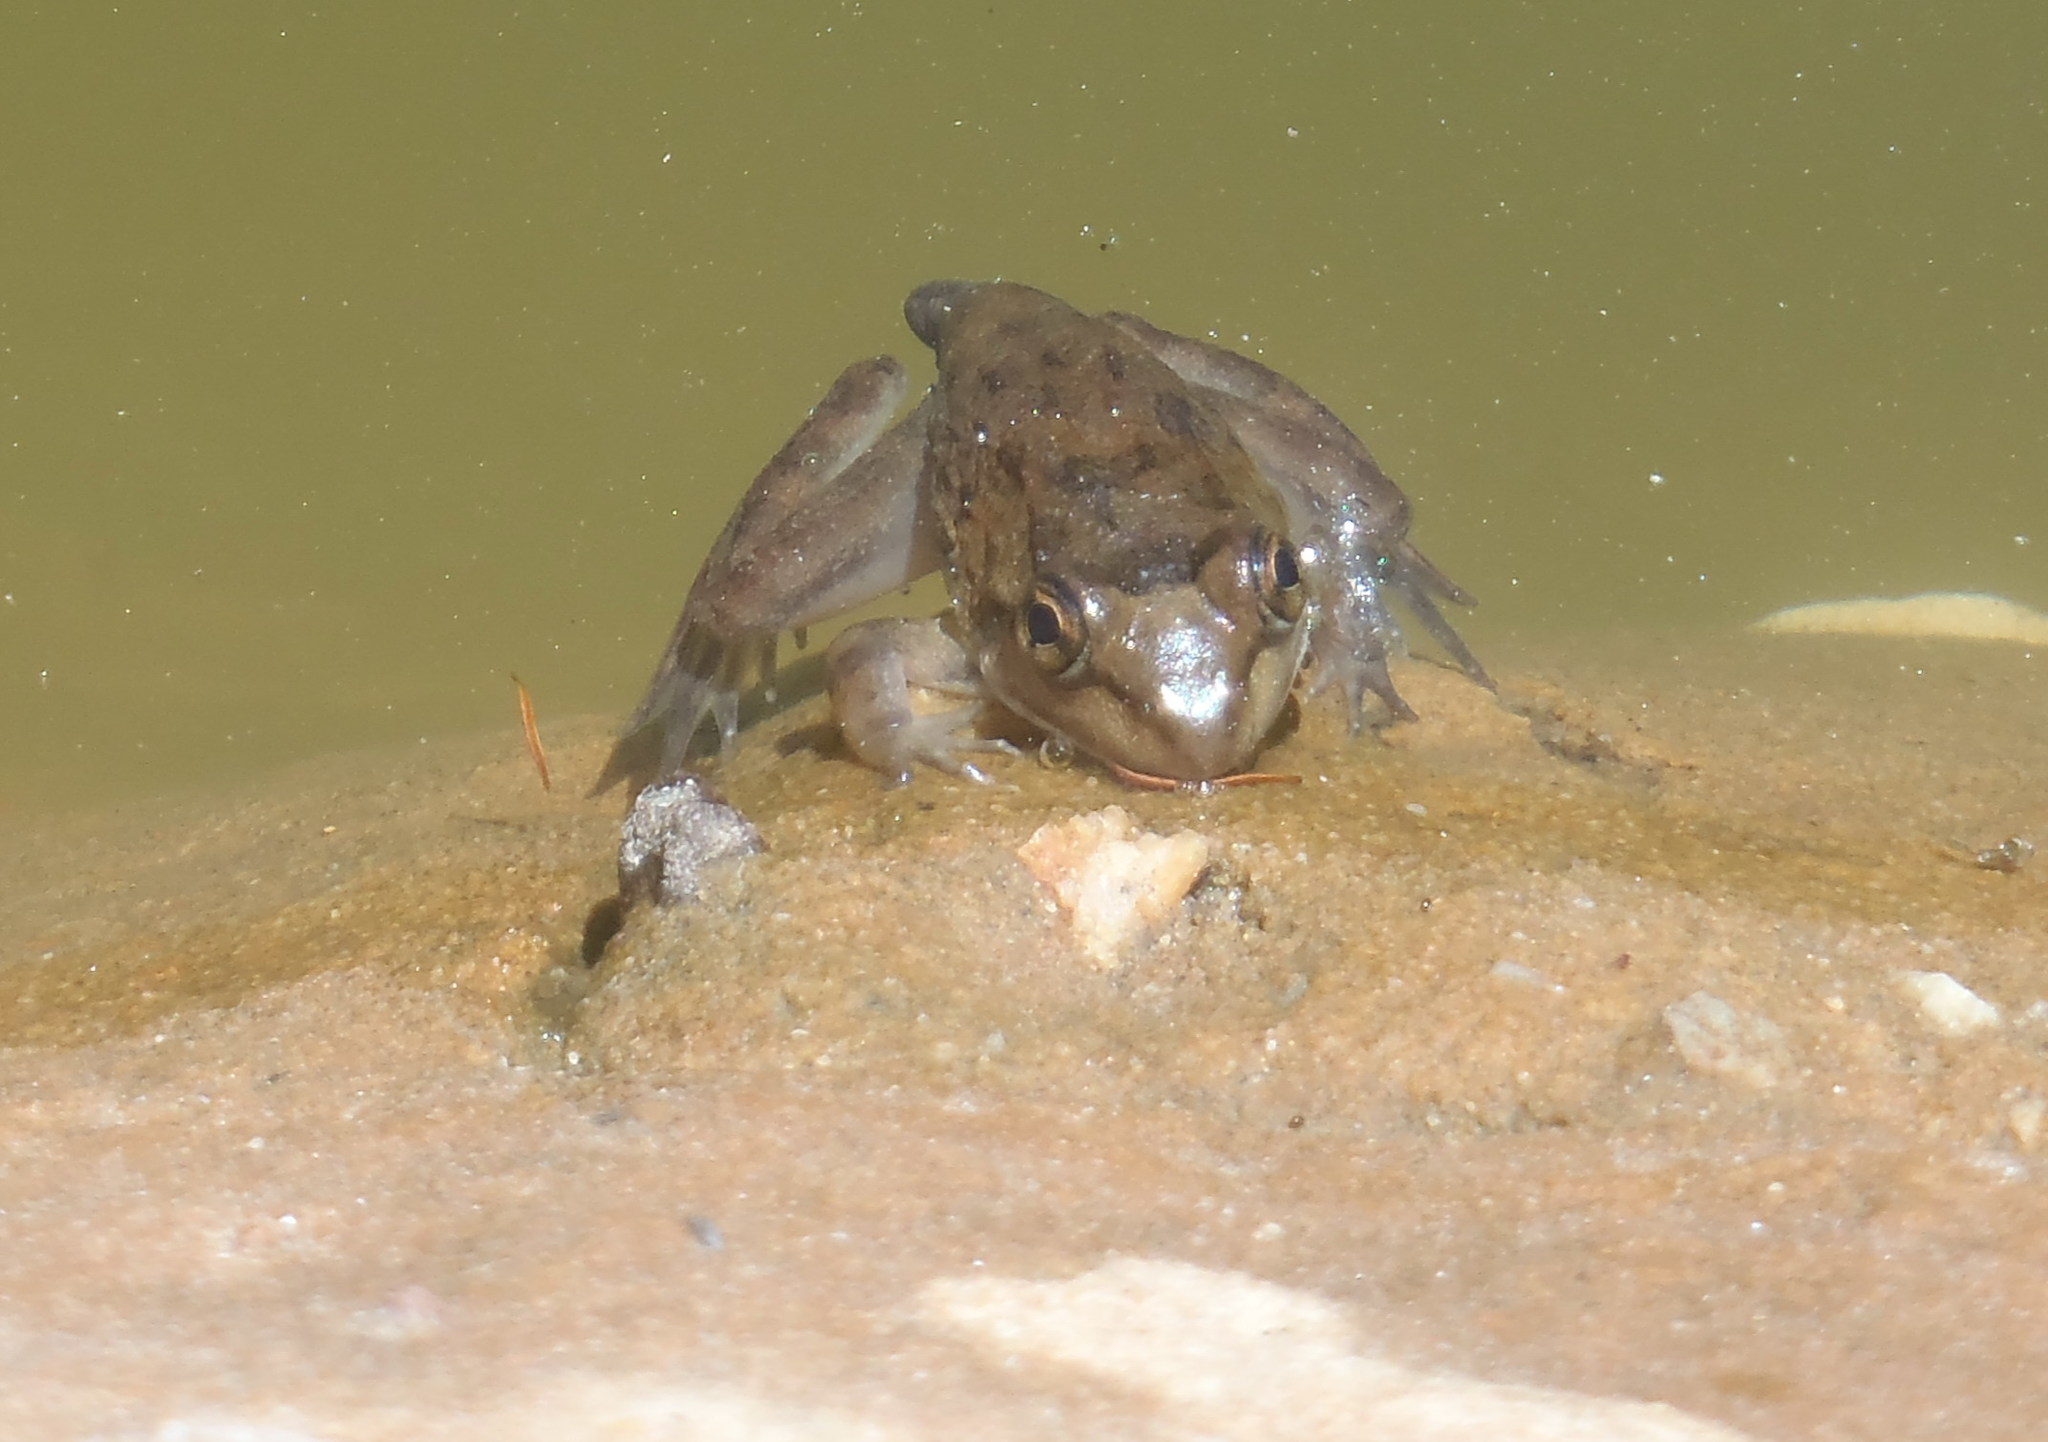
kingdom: Animalia
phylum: Chordata
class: Amphibia
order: Anura
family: Pyxicephalidae
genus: Amietia
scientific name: Amietia fuscigula
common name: Cape rana
